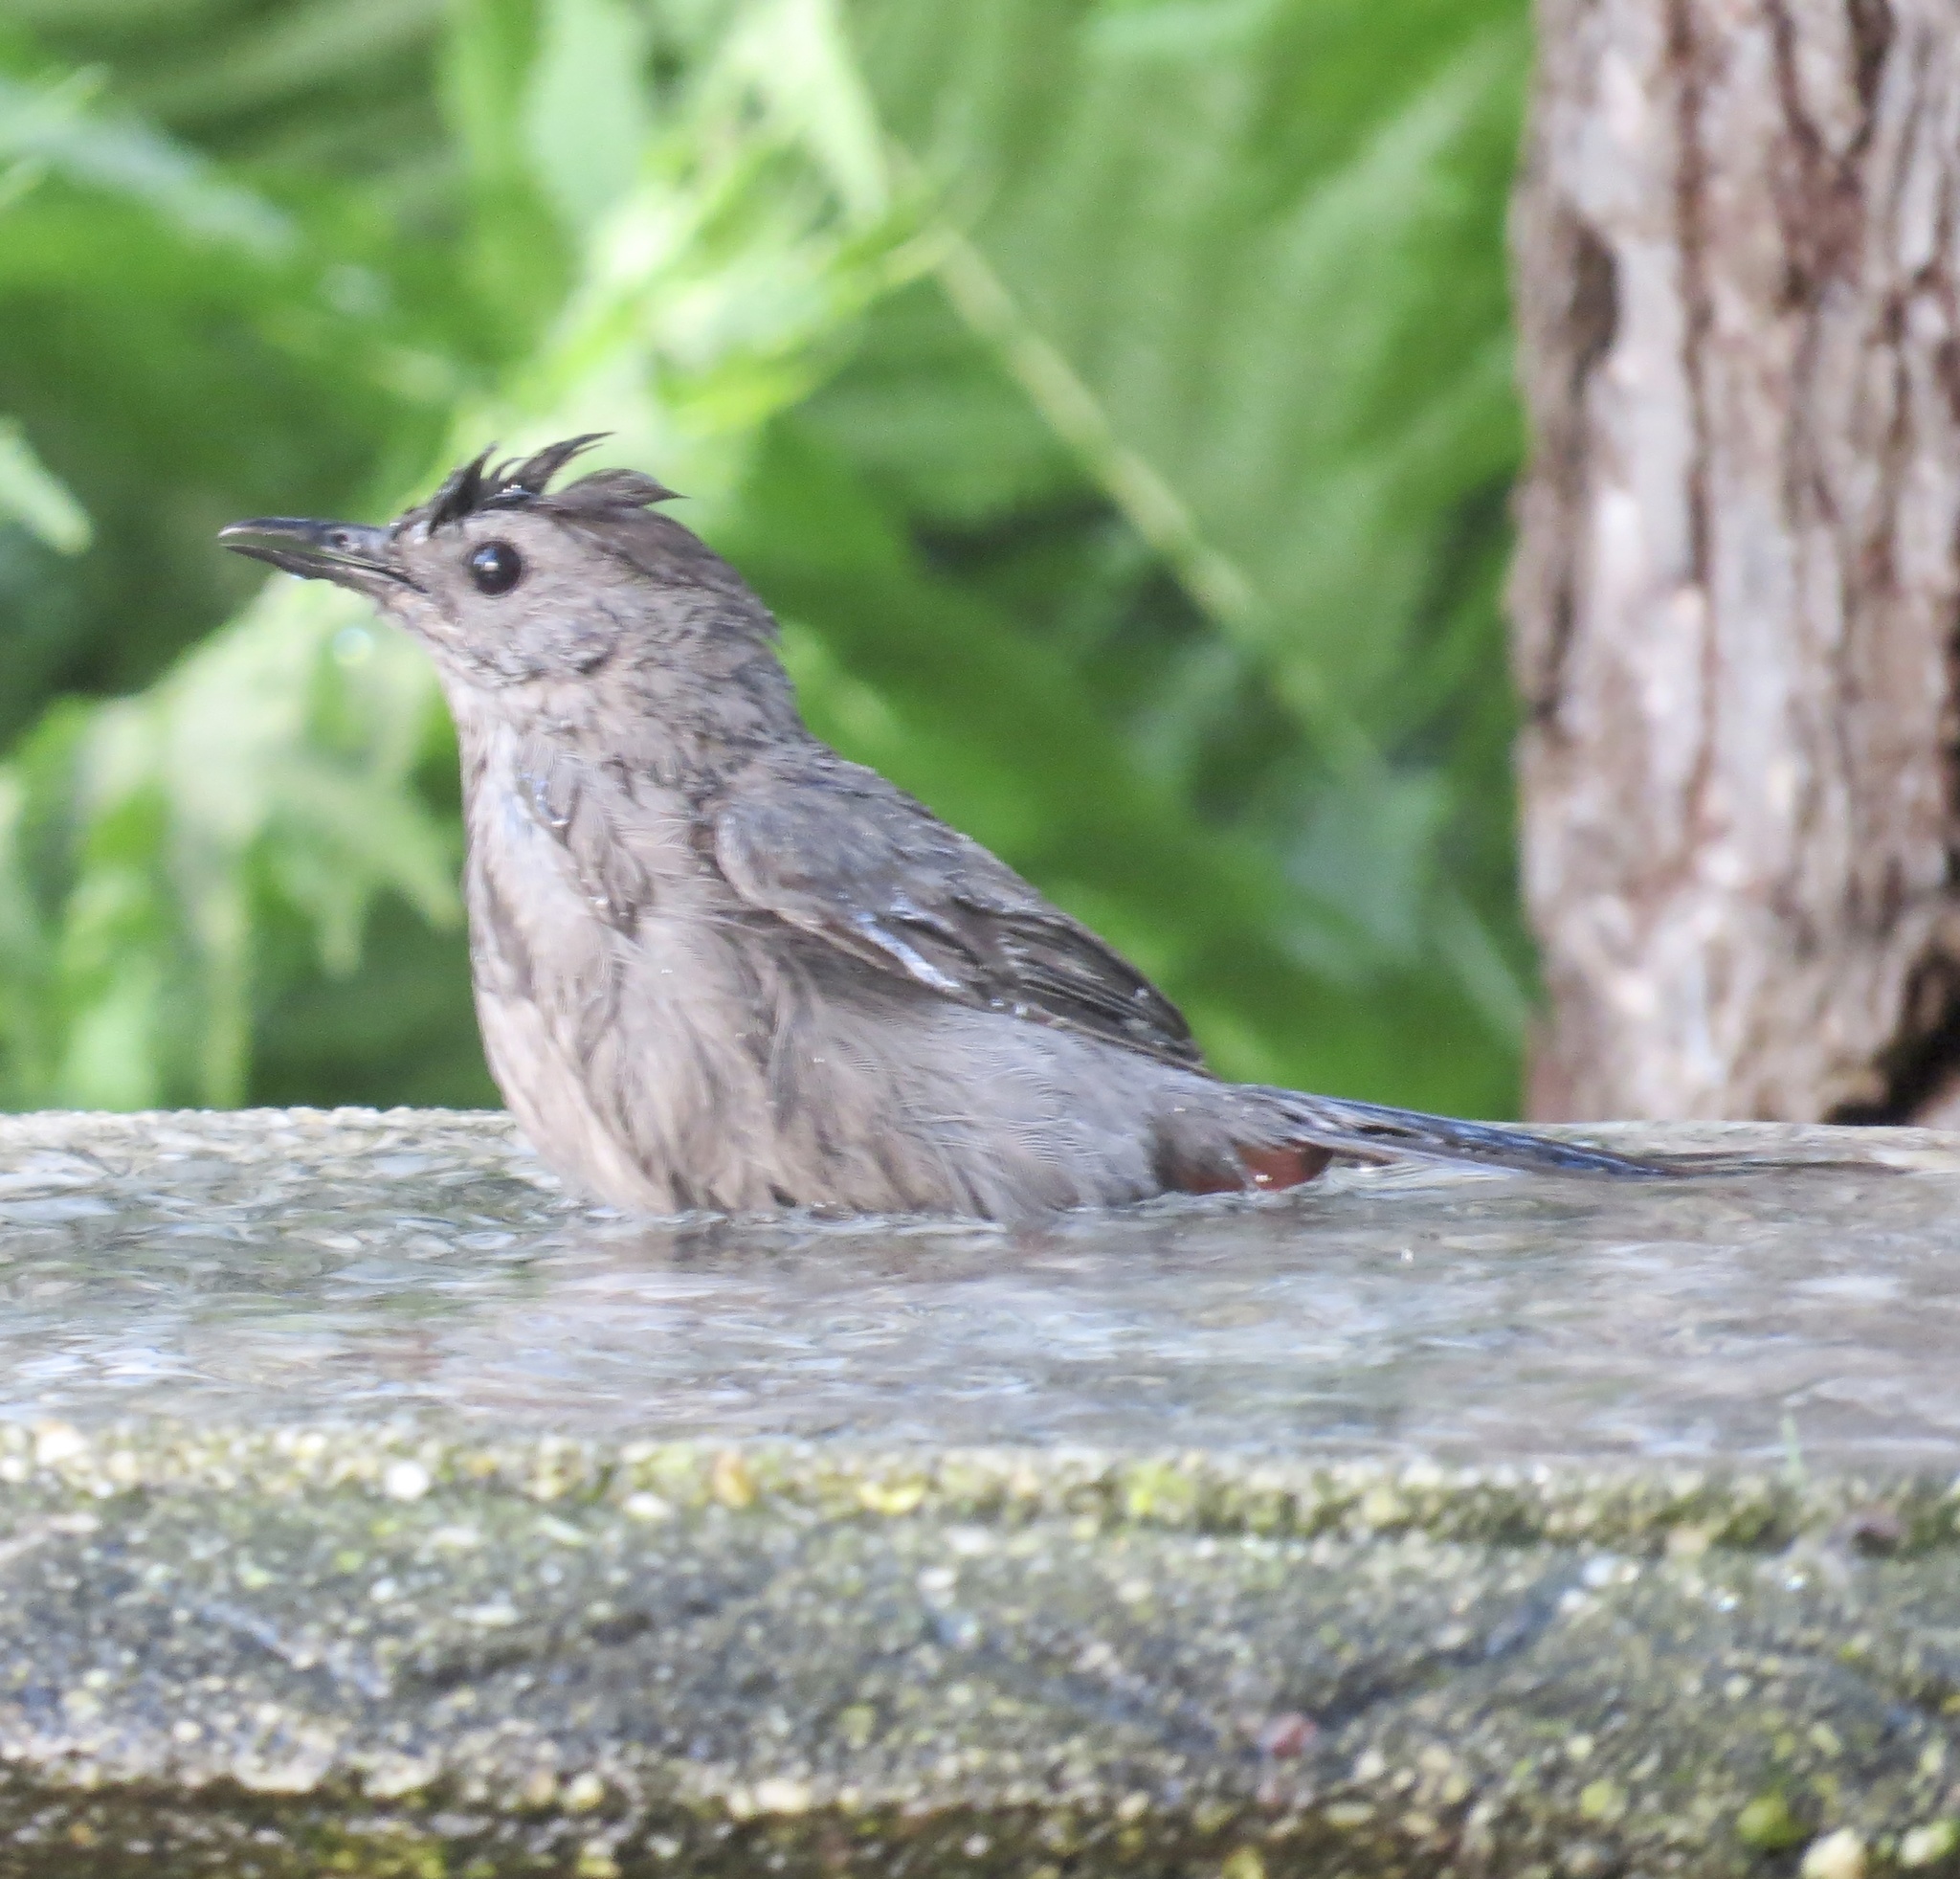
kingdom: Animalia
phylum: Chordata
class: Aves
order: Passeriformes
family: Mimidae
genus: Dumetella
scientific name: Dumetella carolinensis
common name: Gray catbird
